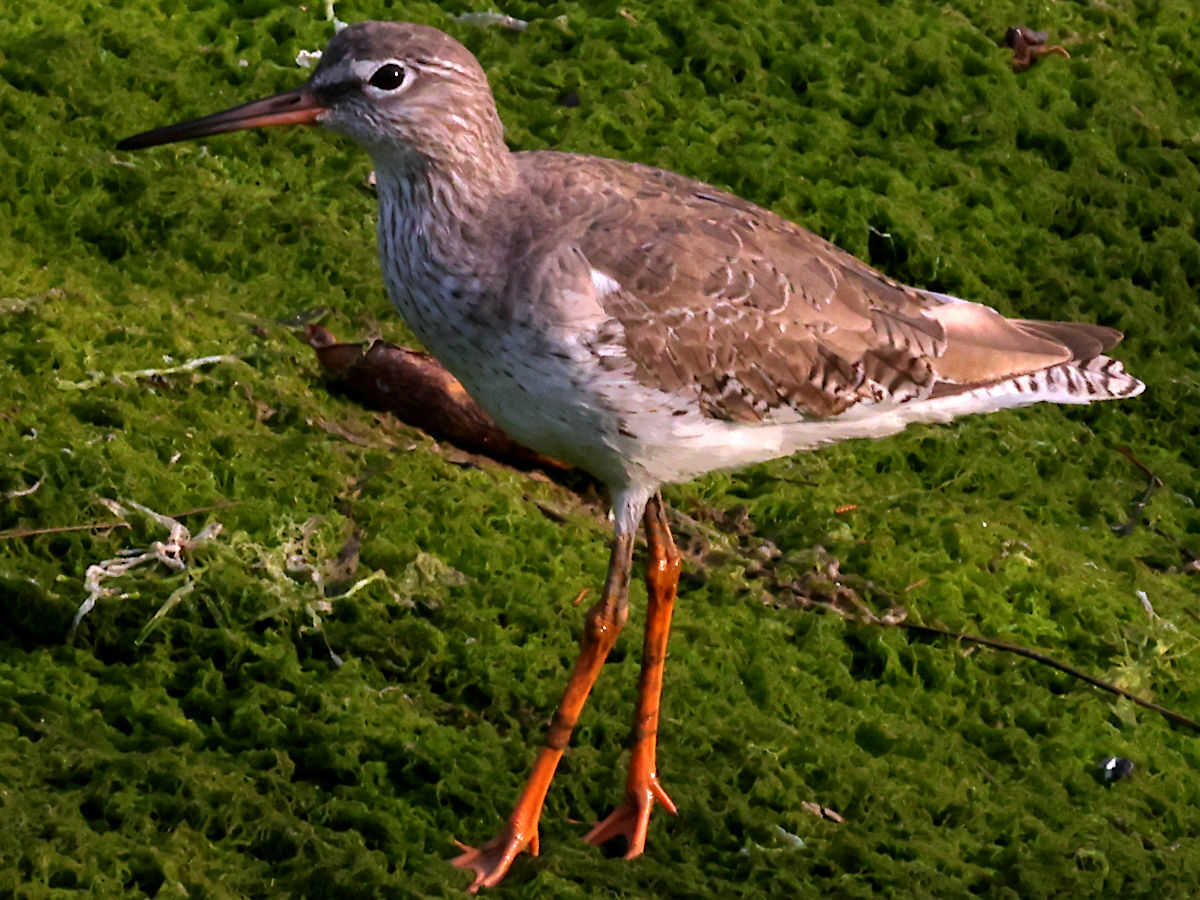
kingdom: Animalia
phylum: Chordata
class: Aves
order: Charadriiformes
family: Scolopacidae
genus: Tringa
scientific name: Tringa totanus
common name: Common redshank
